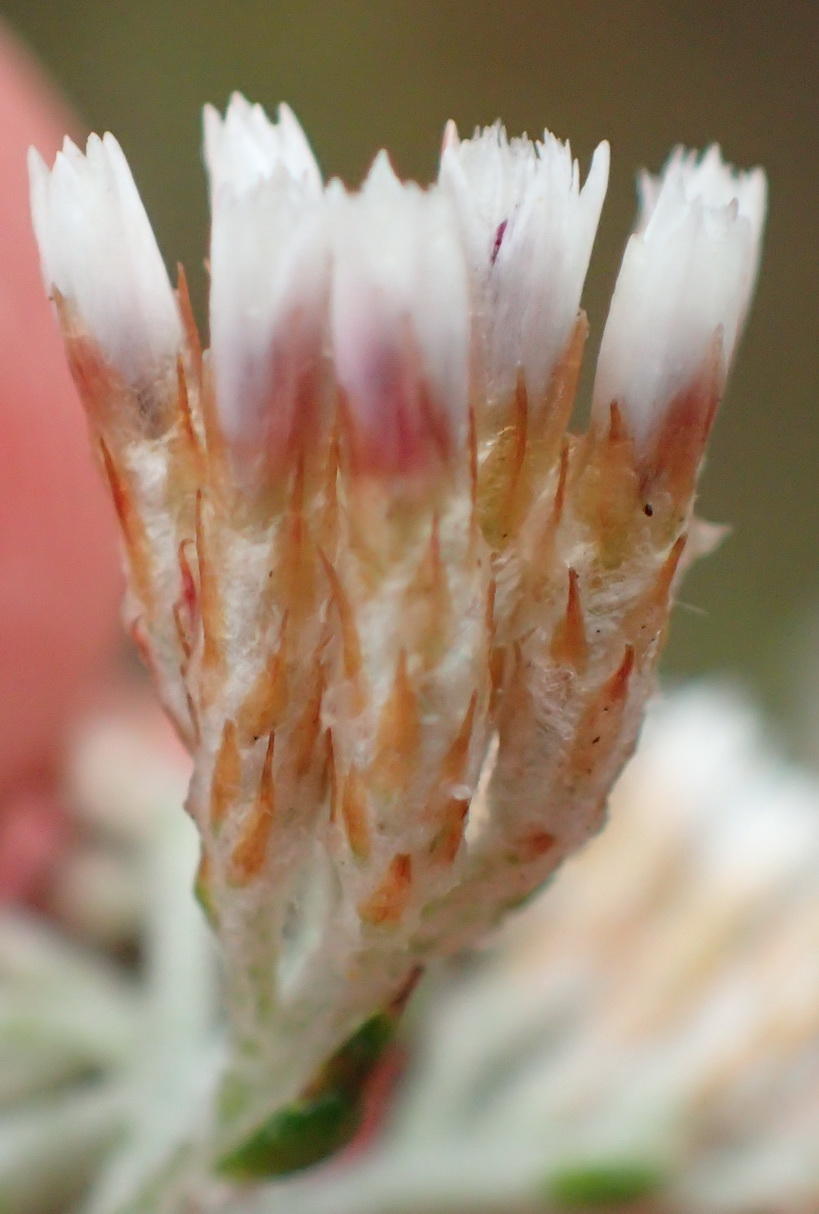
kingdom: Plantae
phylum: Tracheophyta
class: Magnoliopsida
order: Asterales
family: Asteraceae
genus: Metalasia
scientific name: Metalasia pungens
